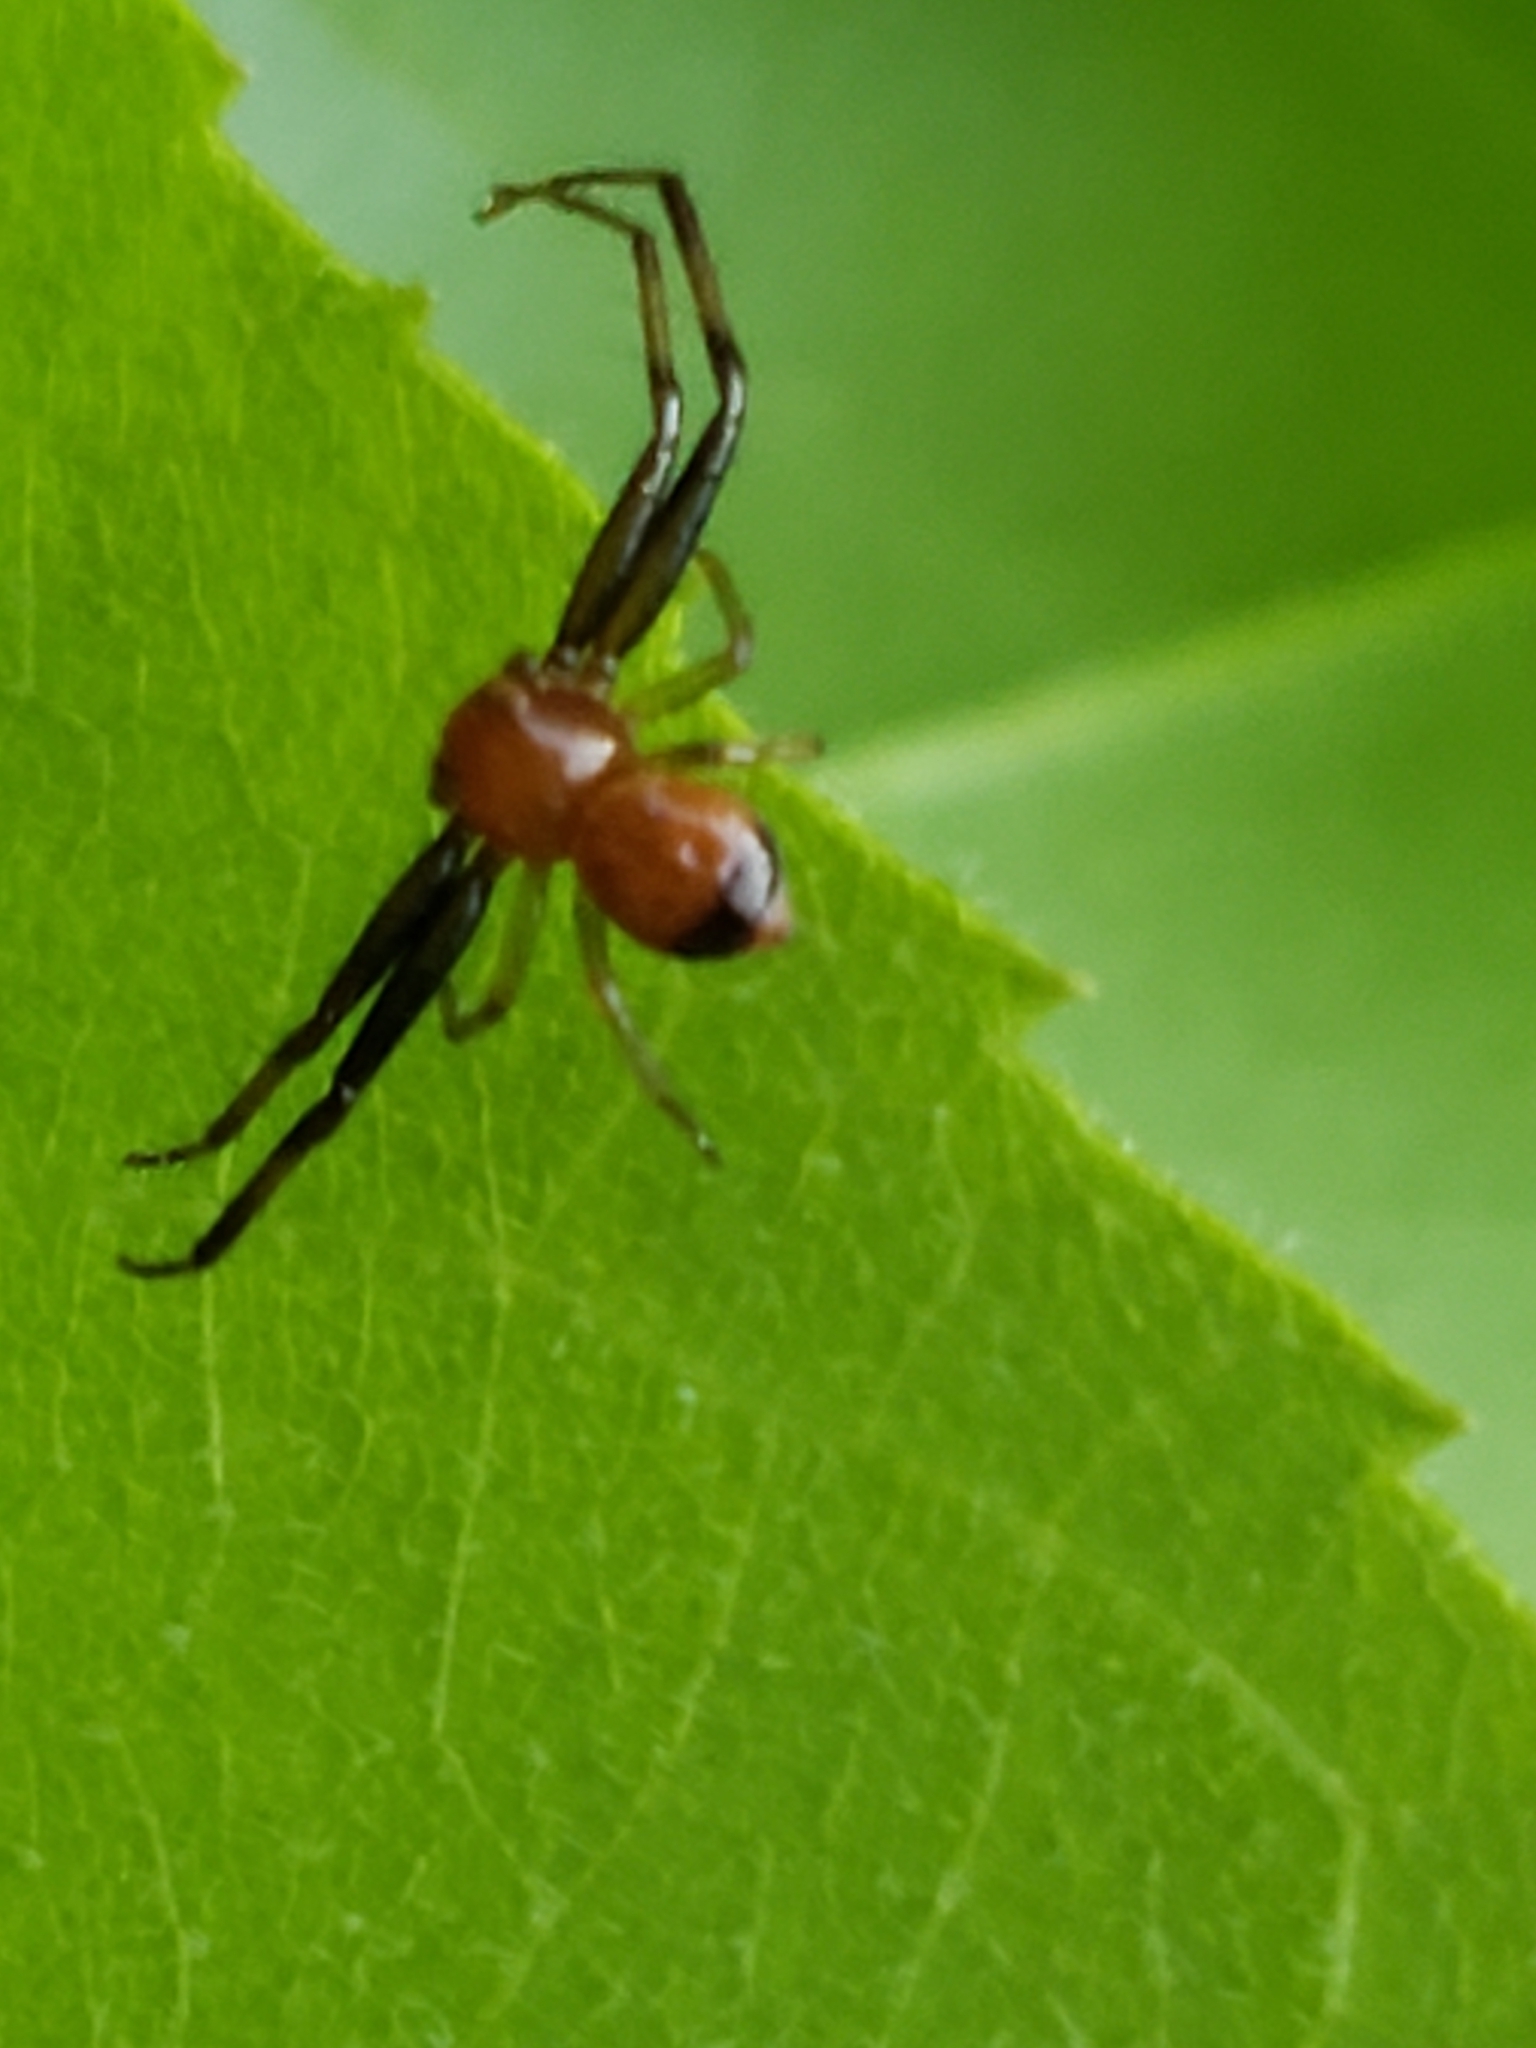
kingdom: Animalia
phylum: Arthropoda
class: Arachnida
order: Araneae
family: Thomisidae
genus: Synema
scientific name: Synema parvulum
